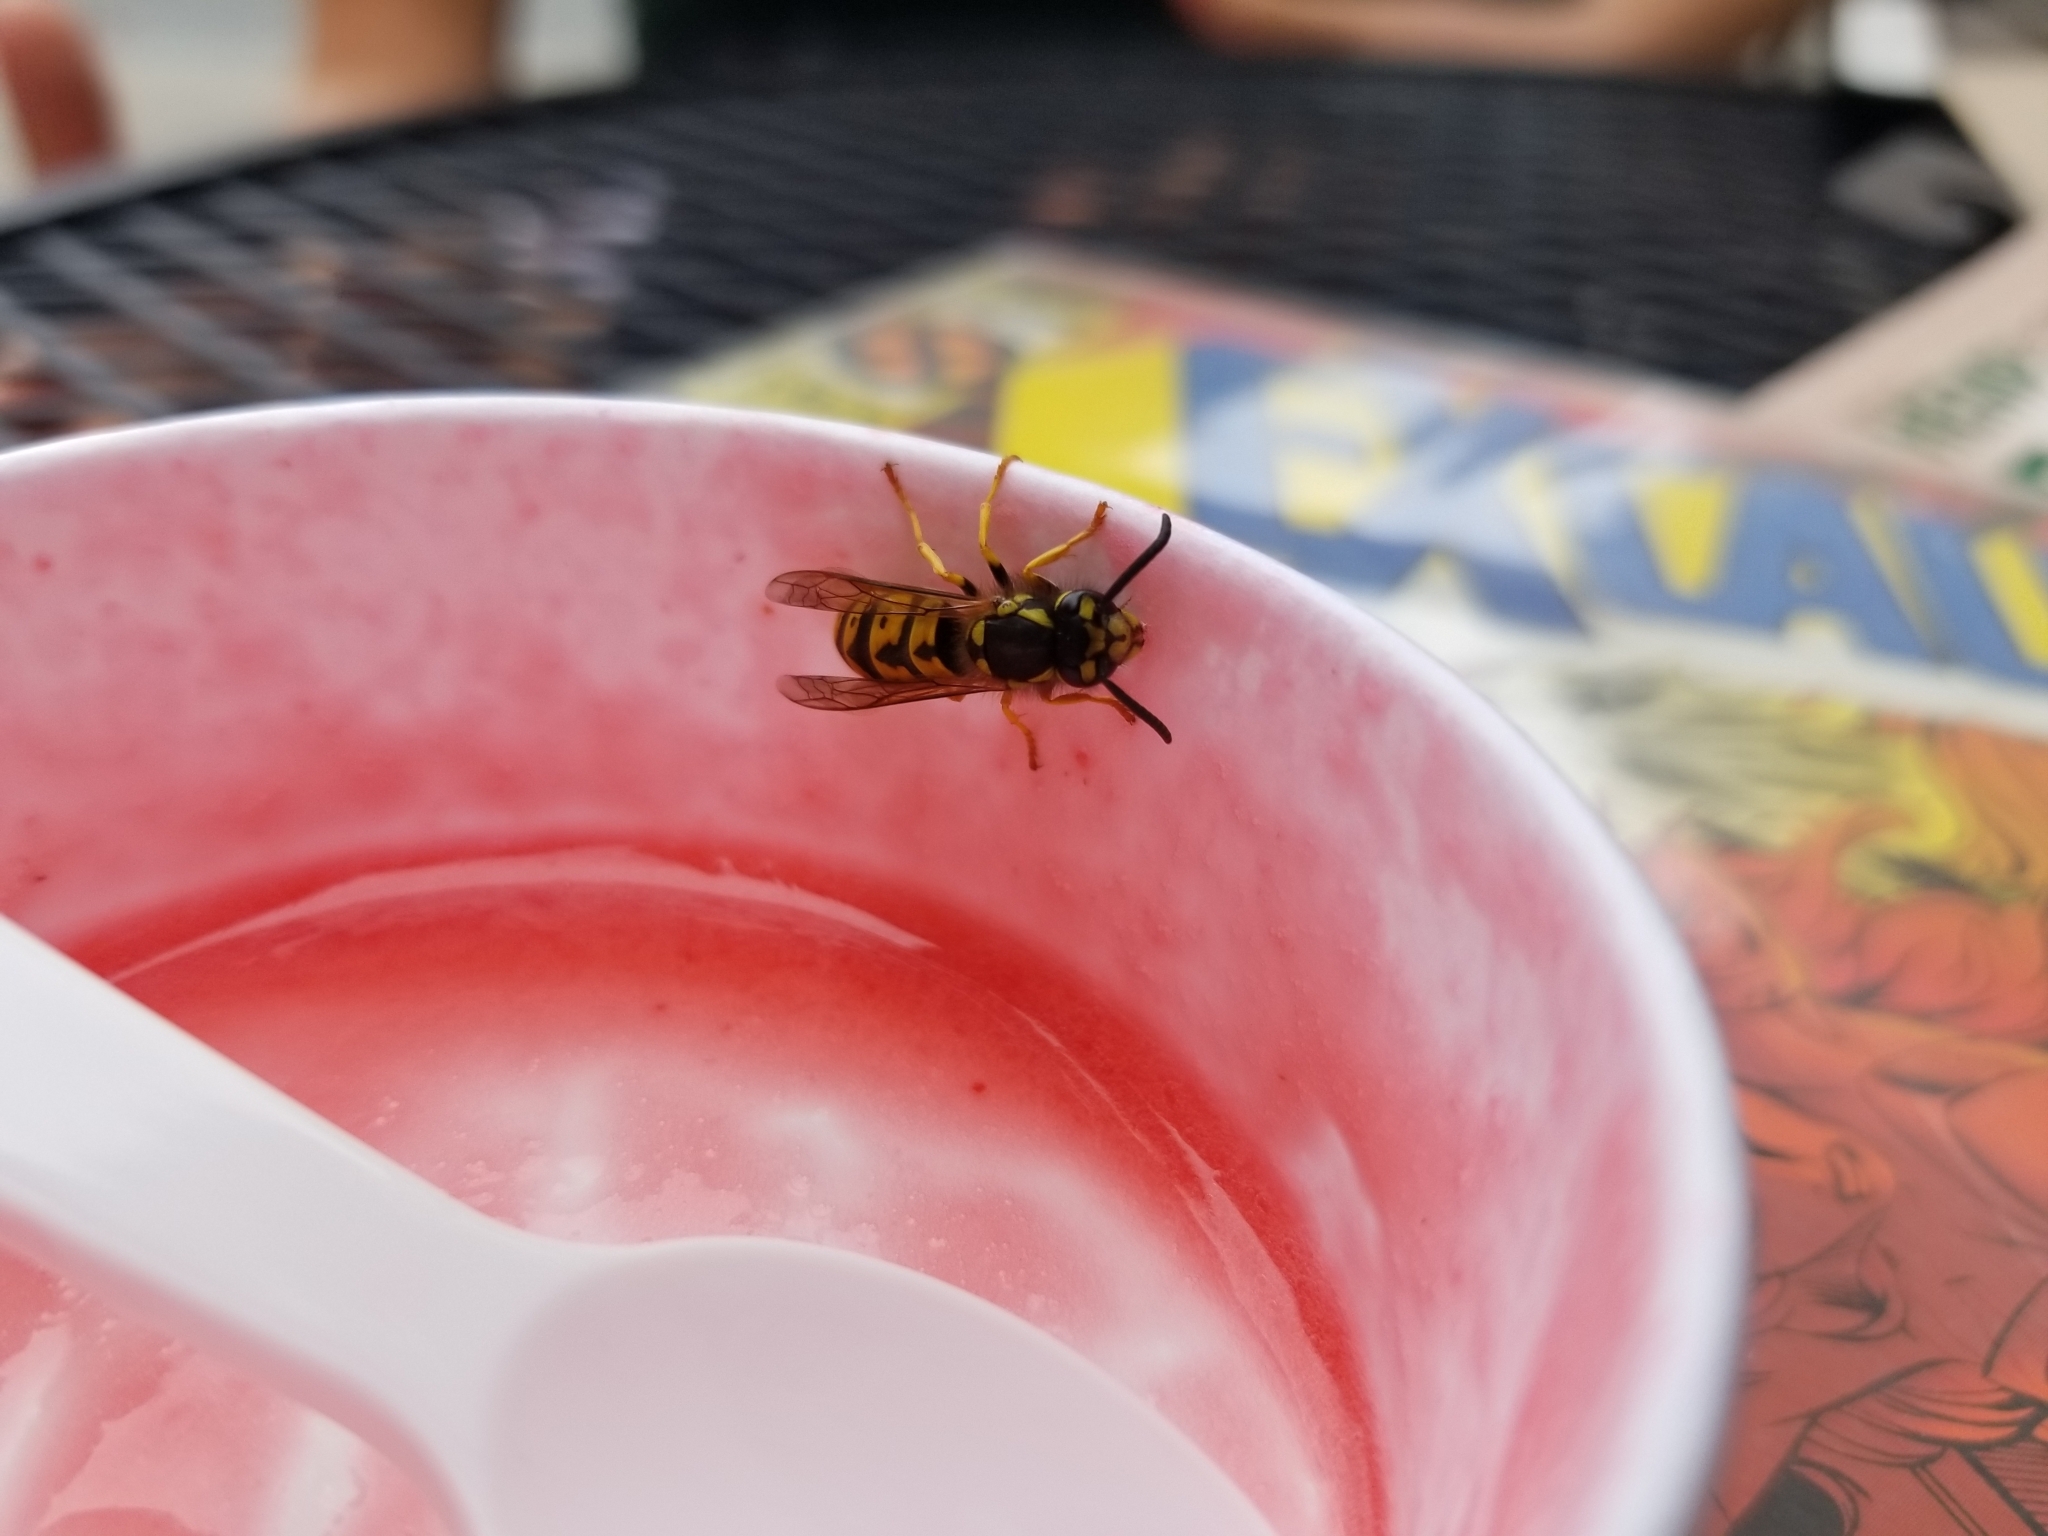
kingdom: Animalia
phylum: Arthropoda
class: Insecta
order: Hymenoptera
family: Vespidae
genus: Vespula
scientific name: Vespula germanica
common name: German wasp
